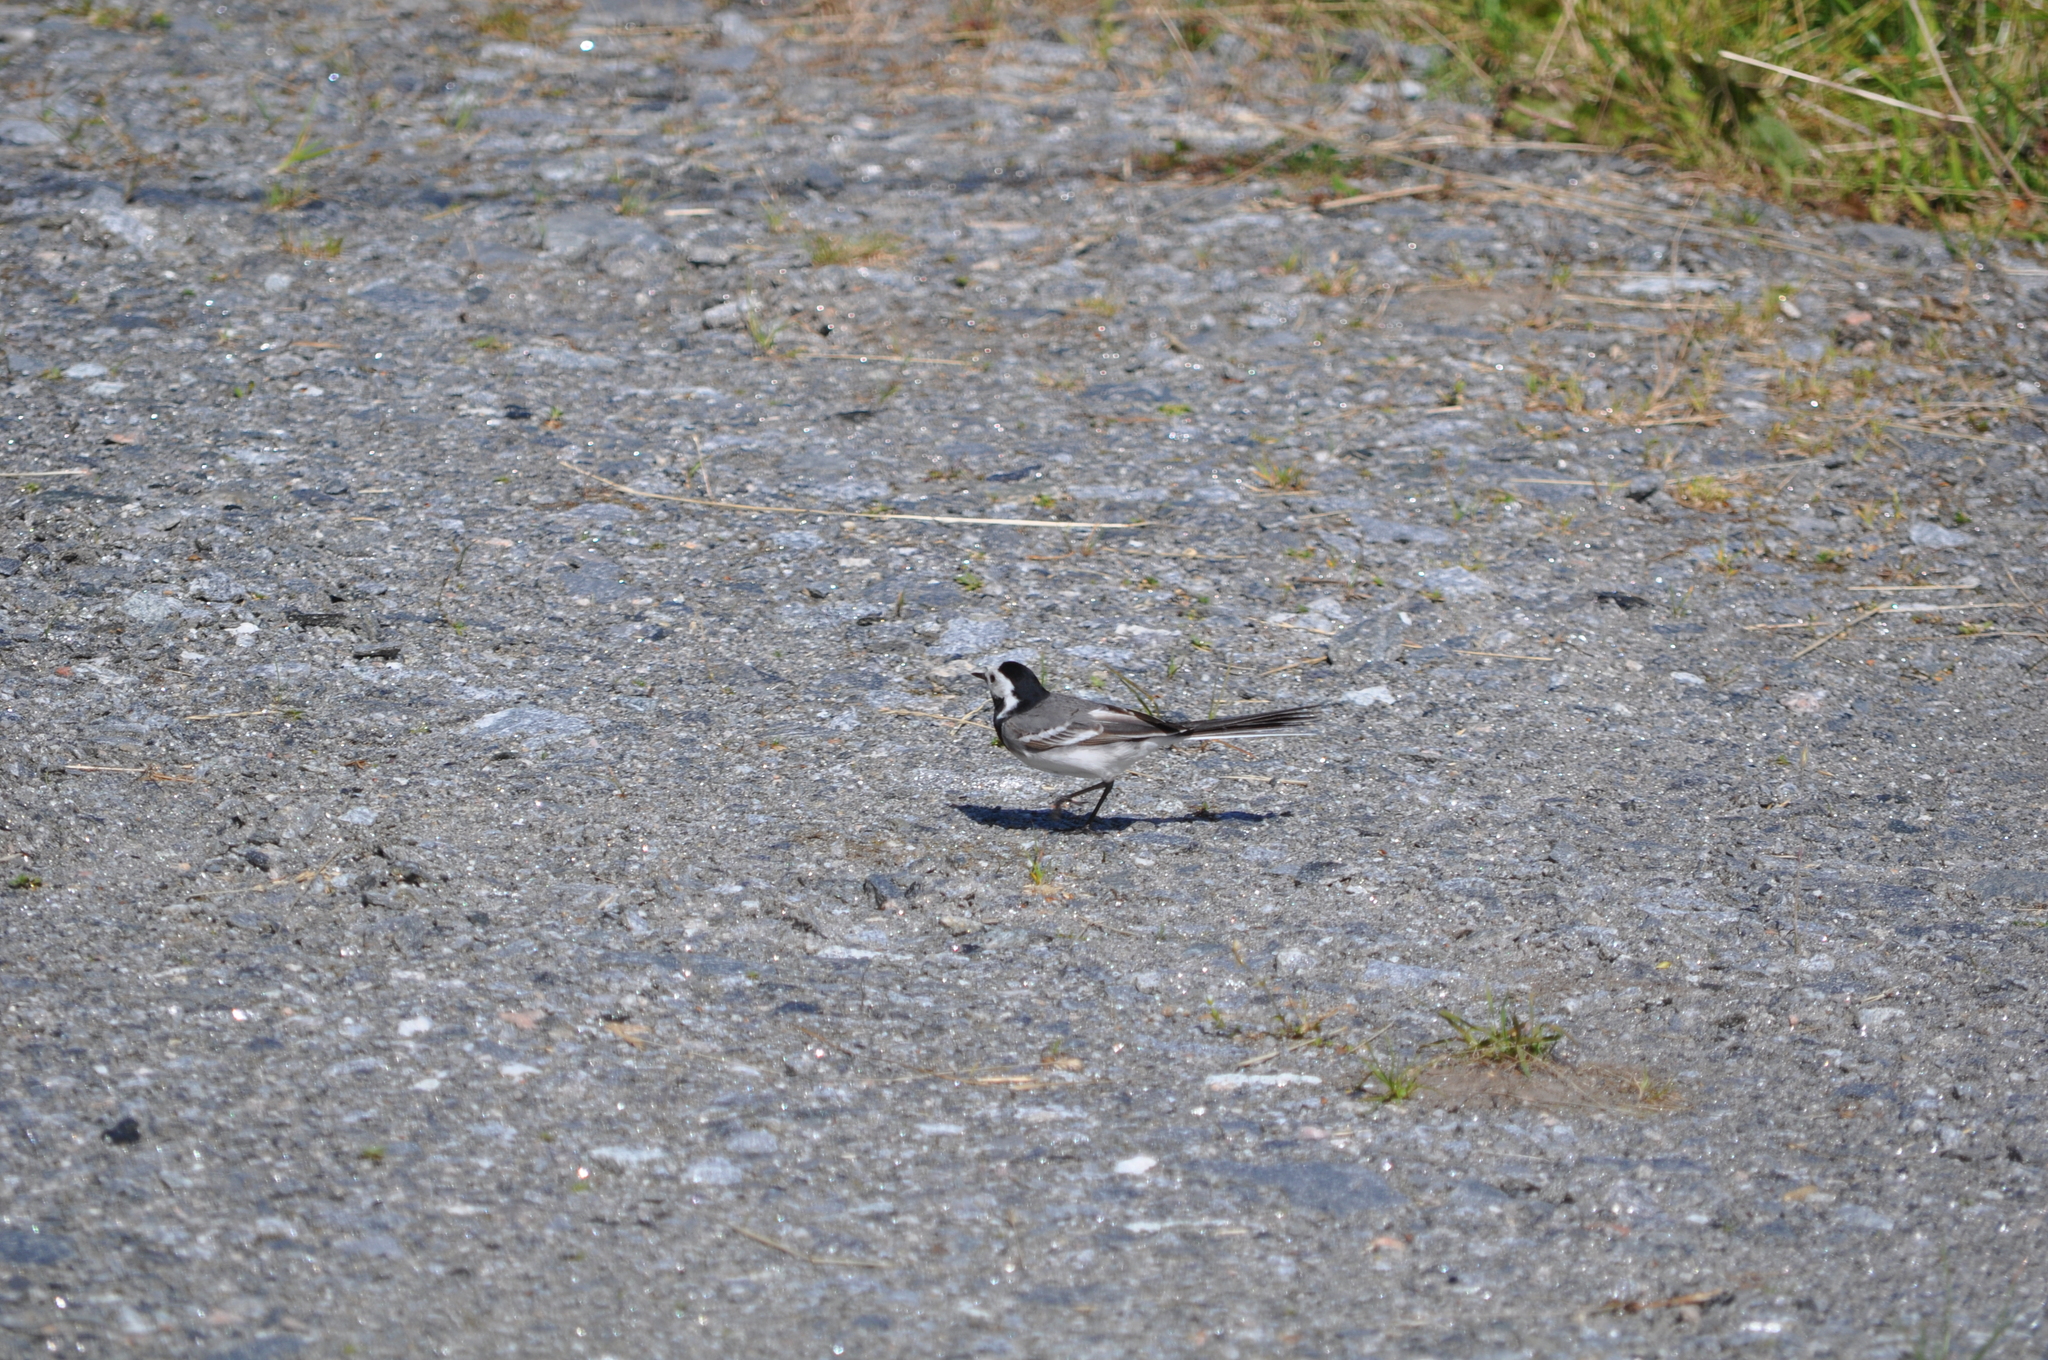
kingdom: Animalia
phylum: Chordata
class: Aves
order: Passeriformes
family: Motacillidae
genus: Motacilla
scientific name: Motacilla alba
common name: White wagtail
